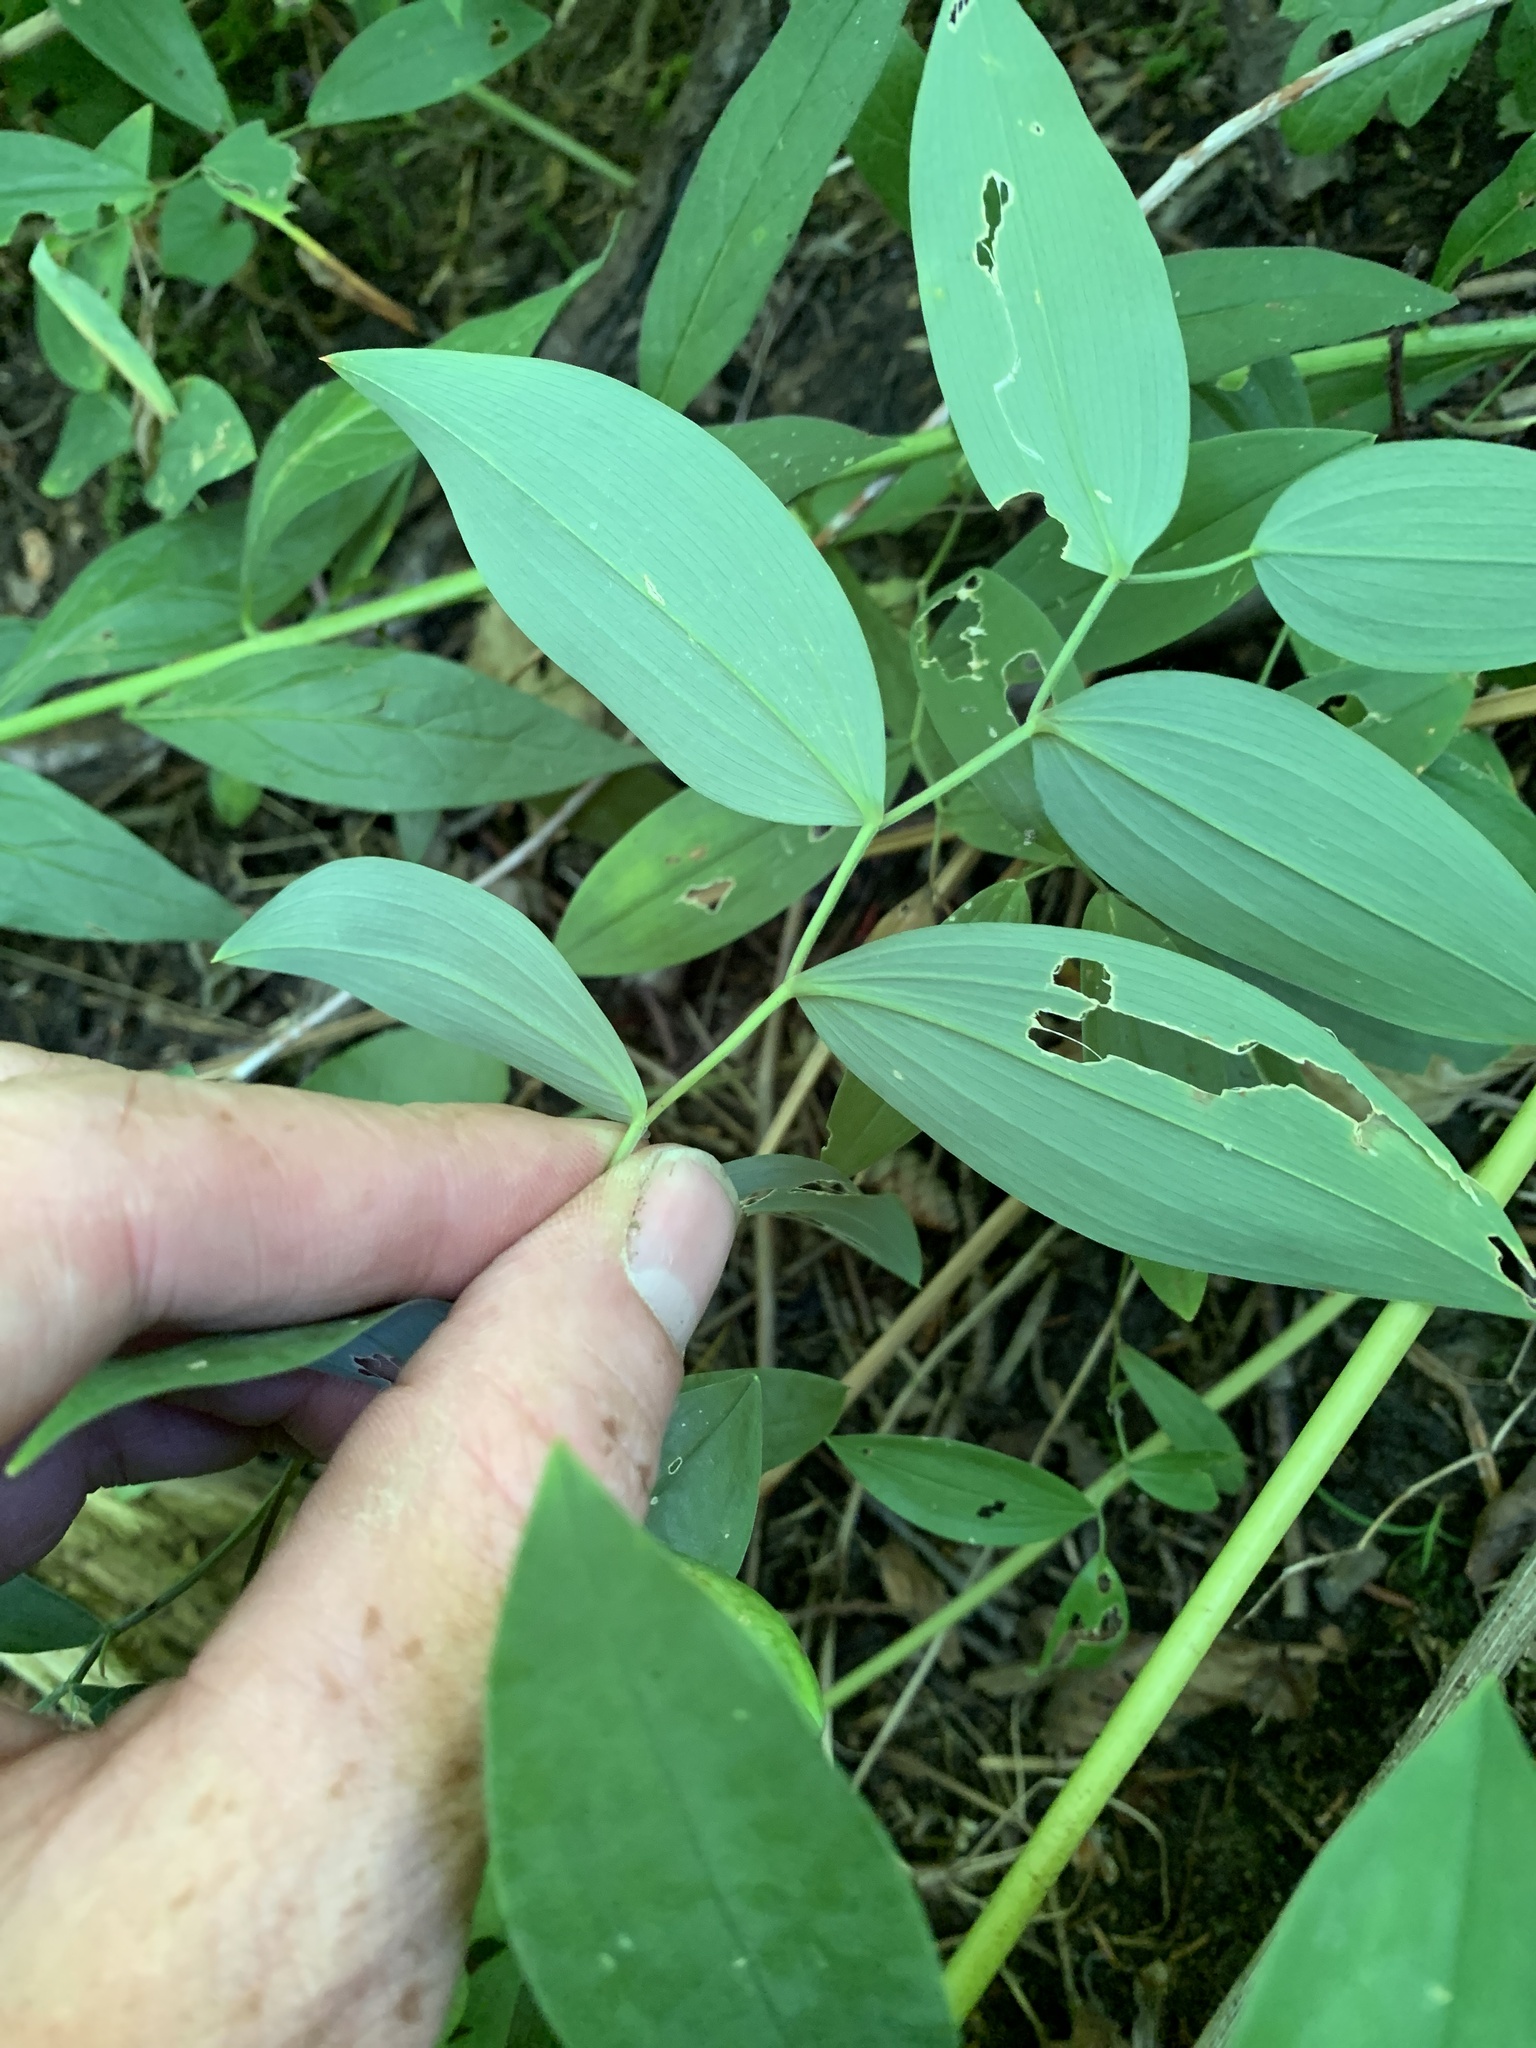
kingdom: Plantae
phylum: Tracheophyta
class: Liliopsida
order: Liliales
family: Colchicaceae
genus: Uvularia
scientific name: Uvularia sessilifolia
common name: Straw-lily
